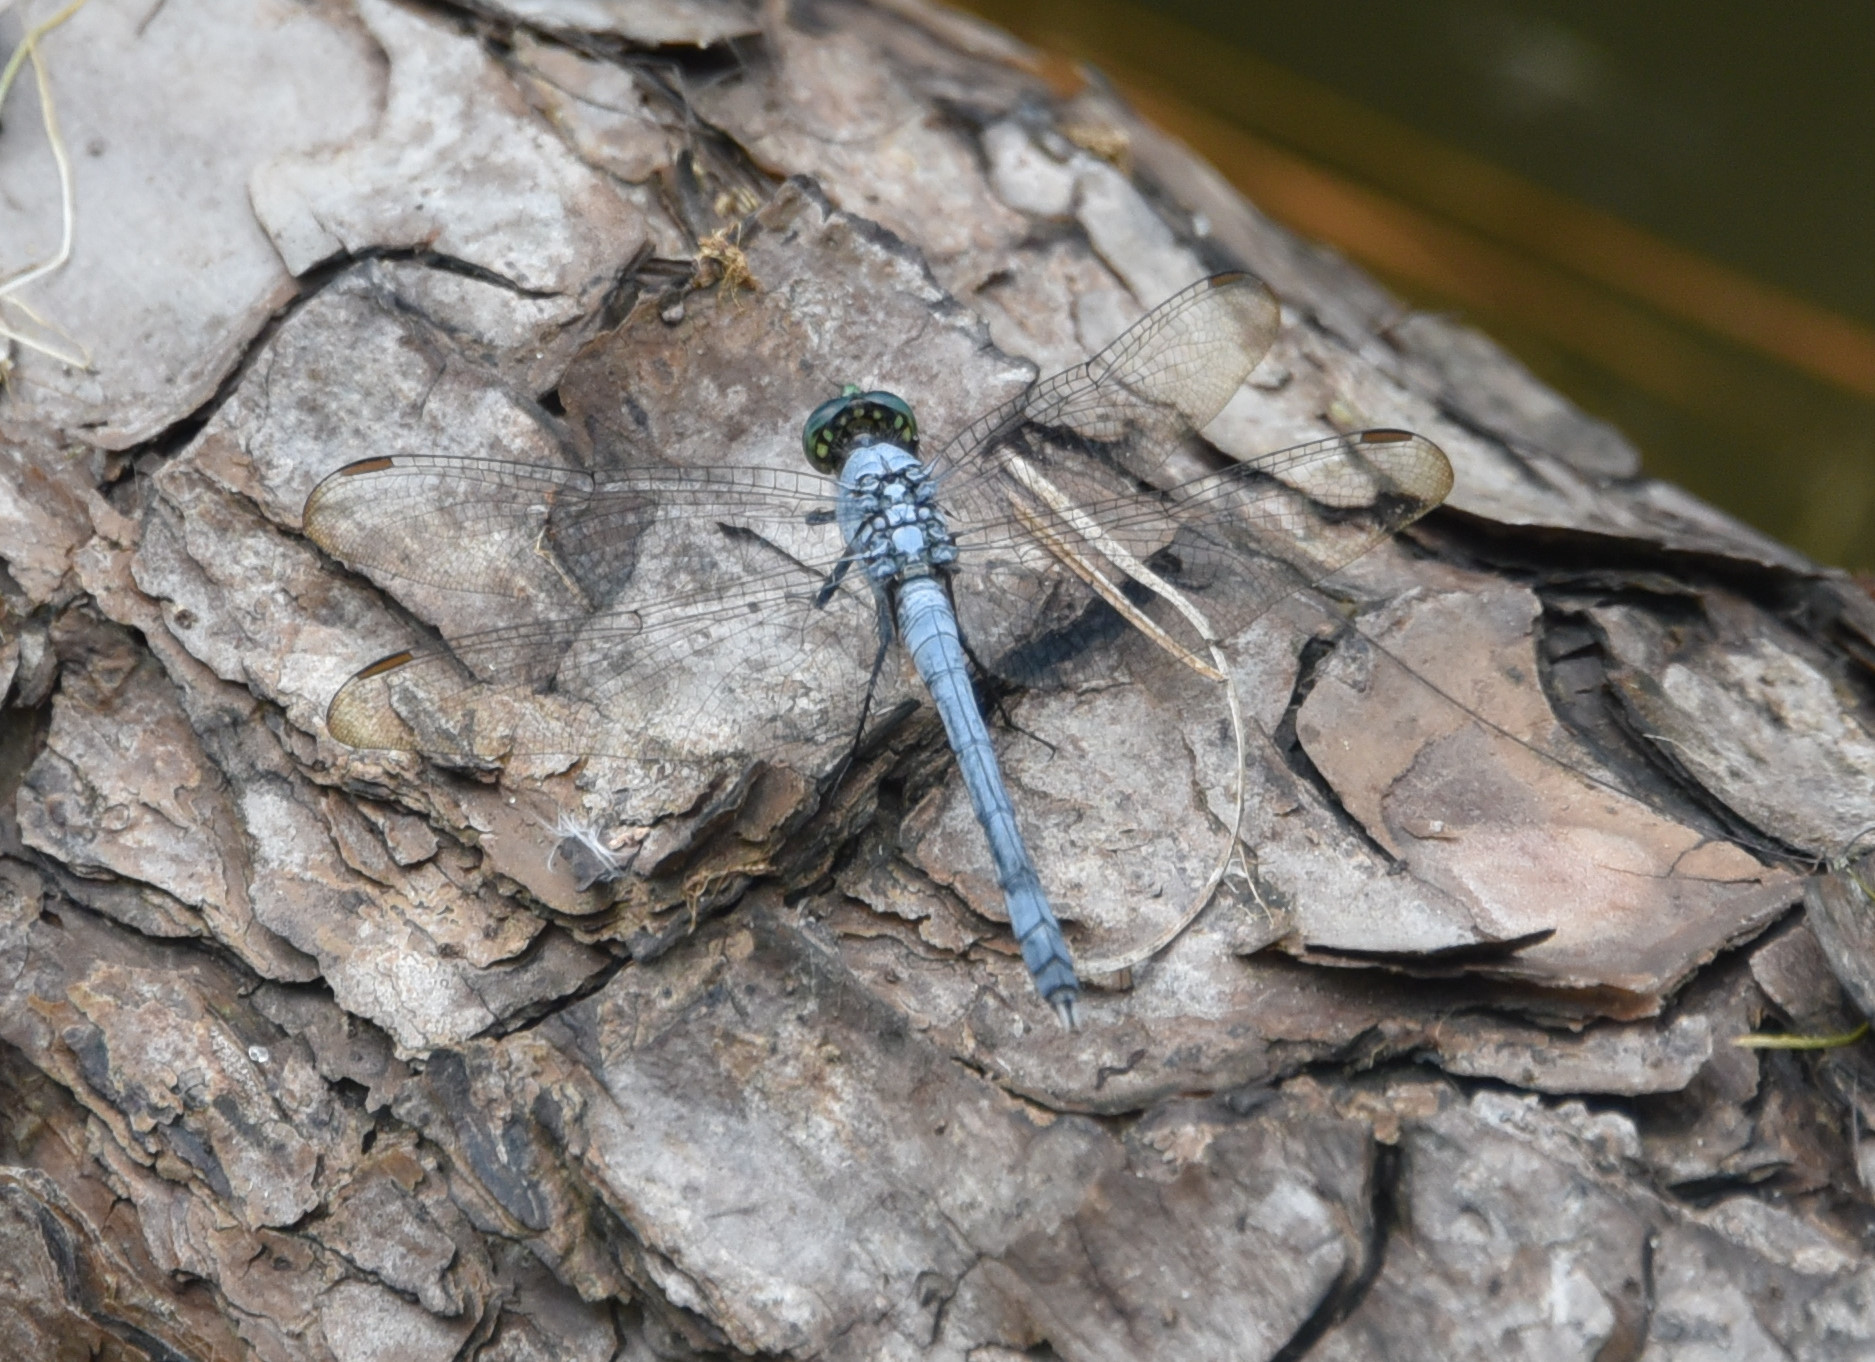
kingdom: Animalia
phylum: Arthropoda
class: Insecta
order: Odonata
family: Libellulidae
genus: Erythemis
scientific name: Erythemis simplicicollis
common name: Eastern pondhawk
